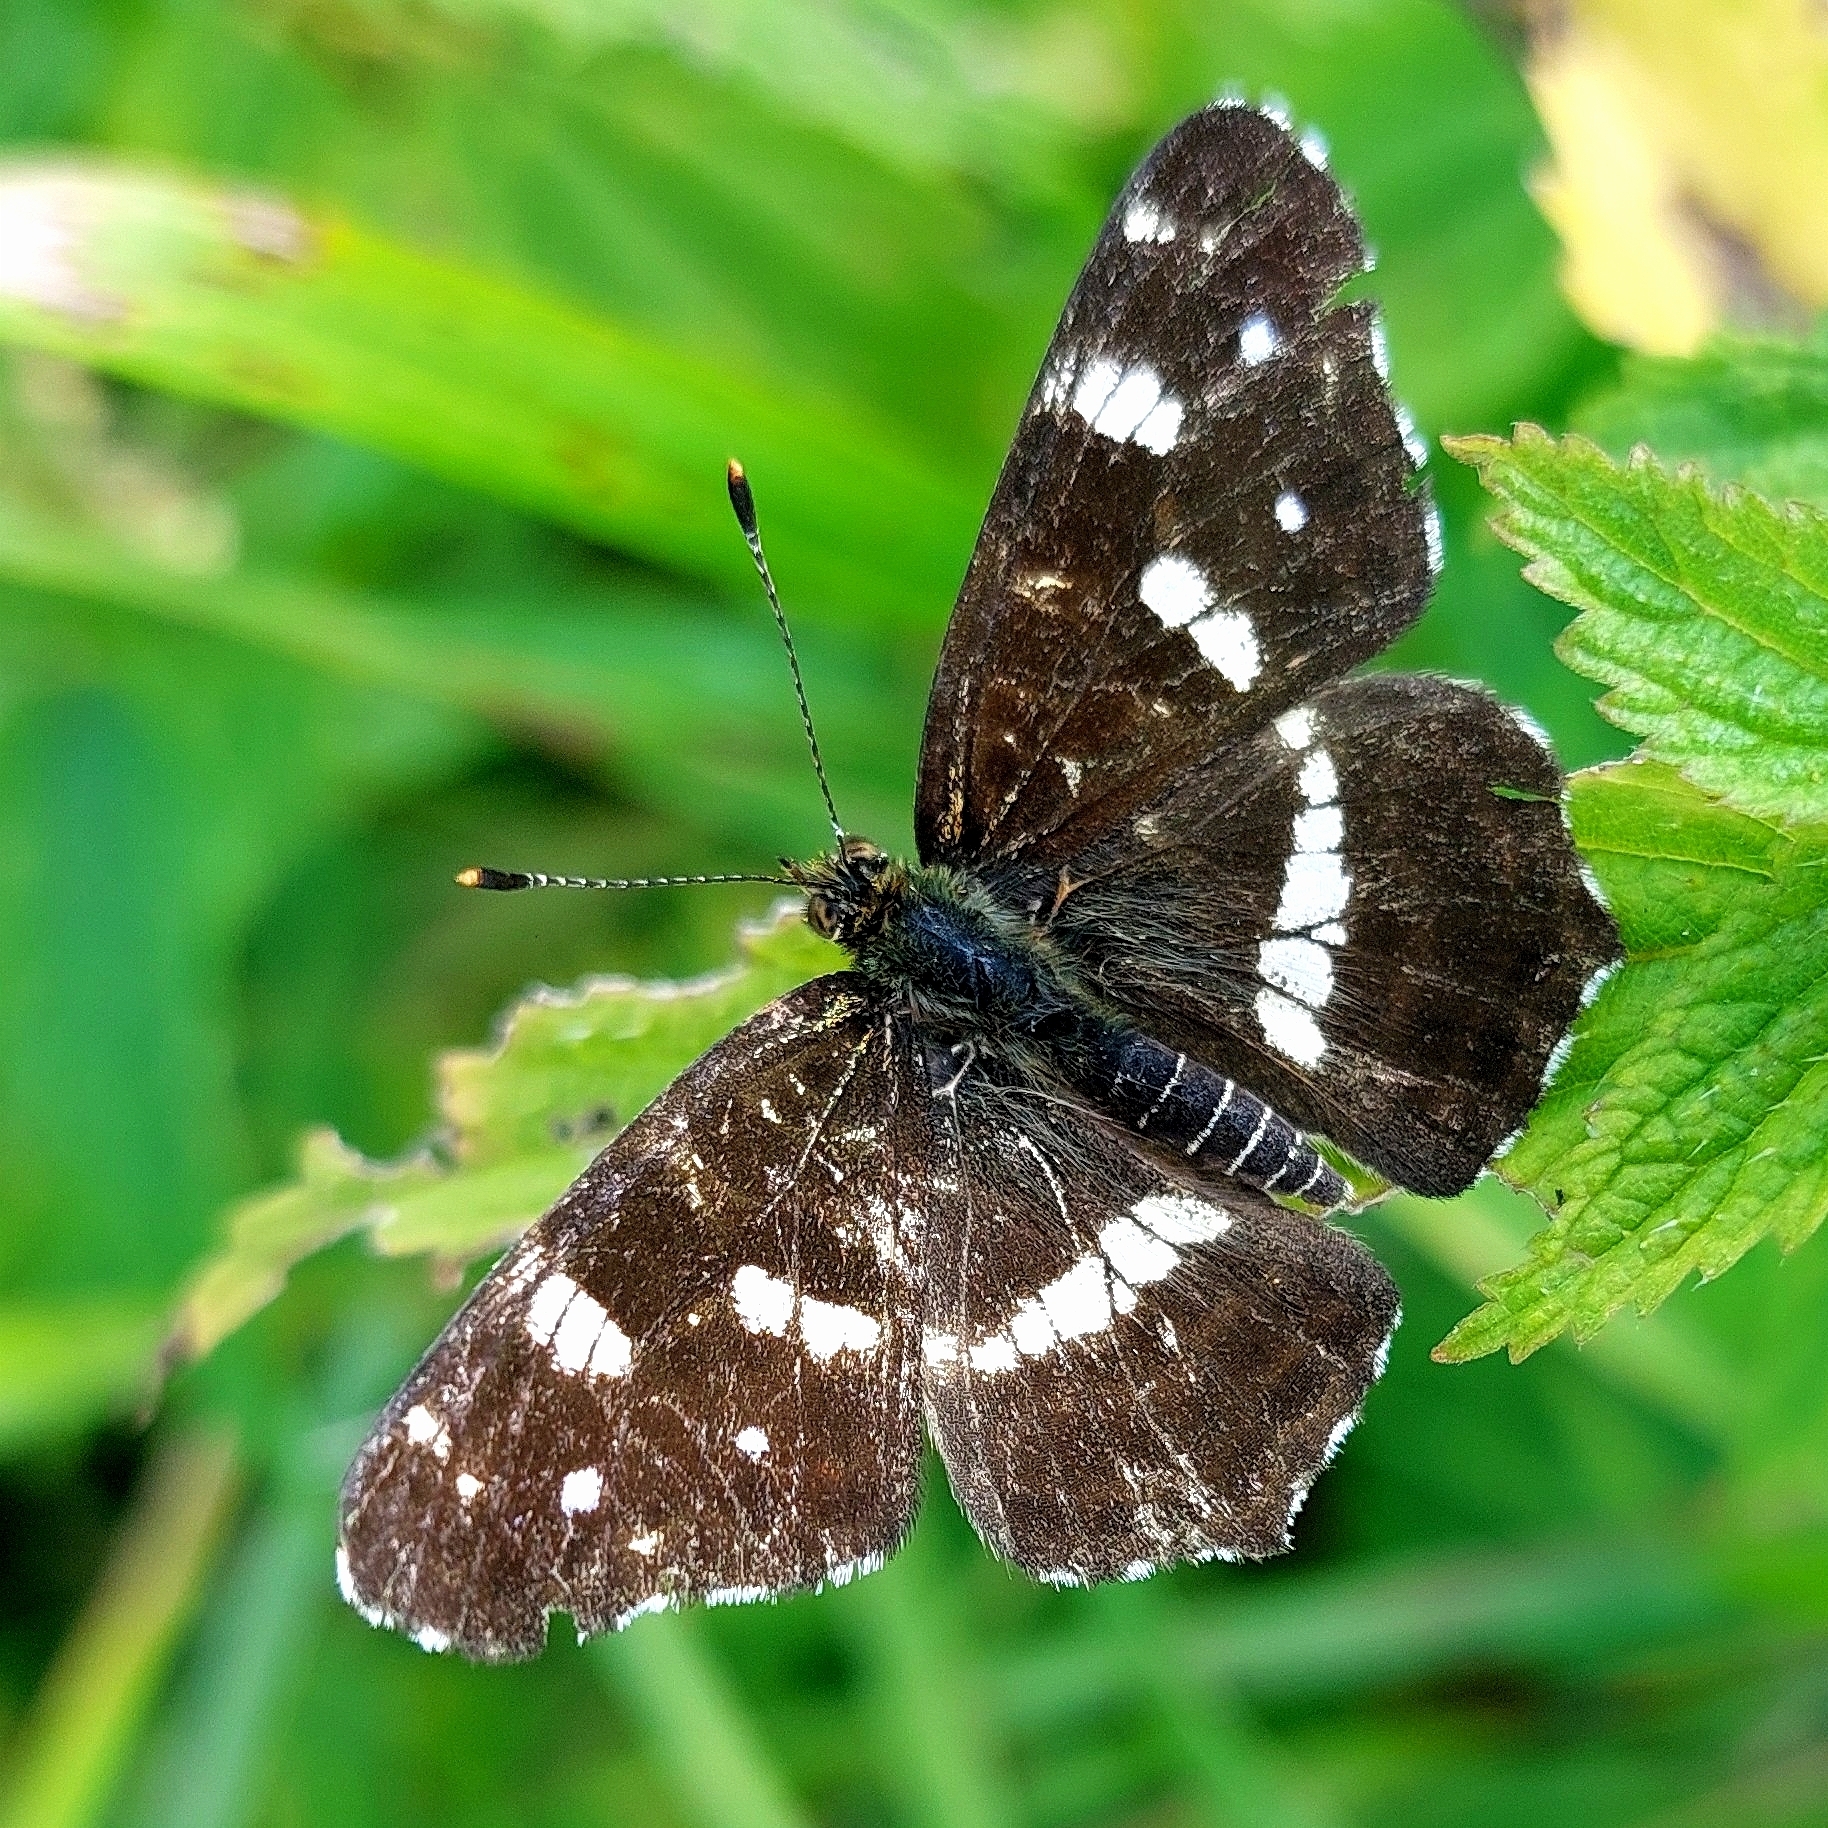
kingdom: Animalia
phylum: Arthropoda
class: Insecta
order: Lepidoptera
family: Nymphalidae
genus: Araschnia
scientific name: Araschnia levana
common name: Map butterfly
